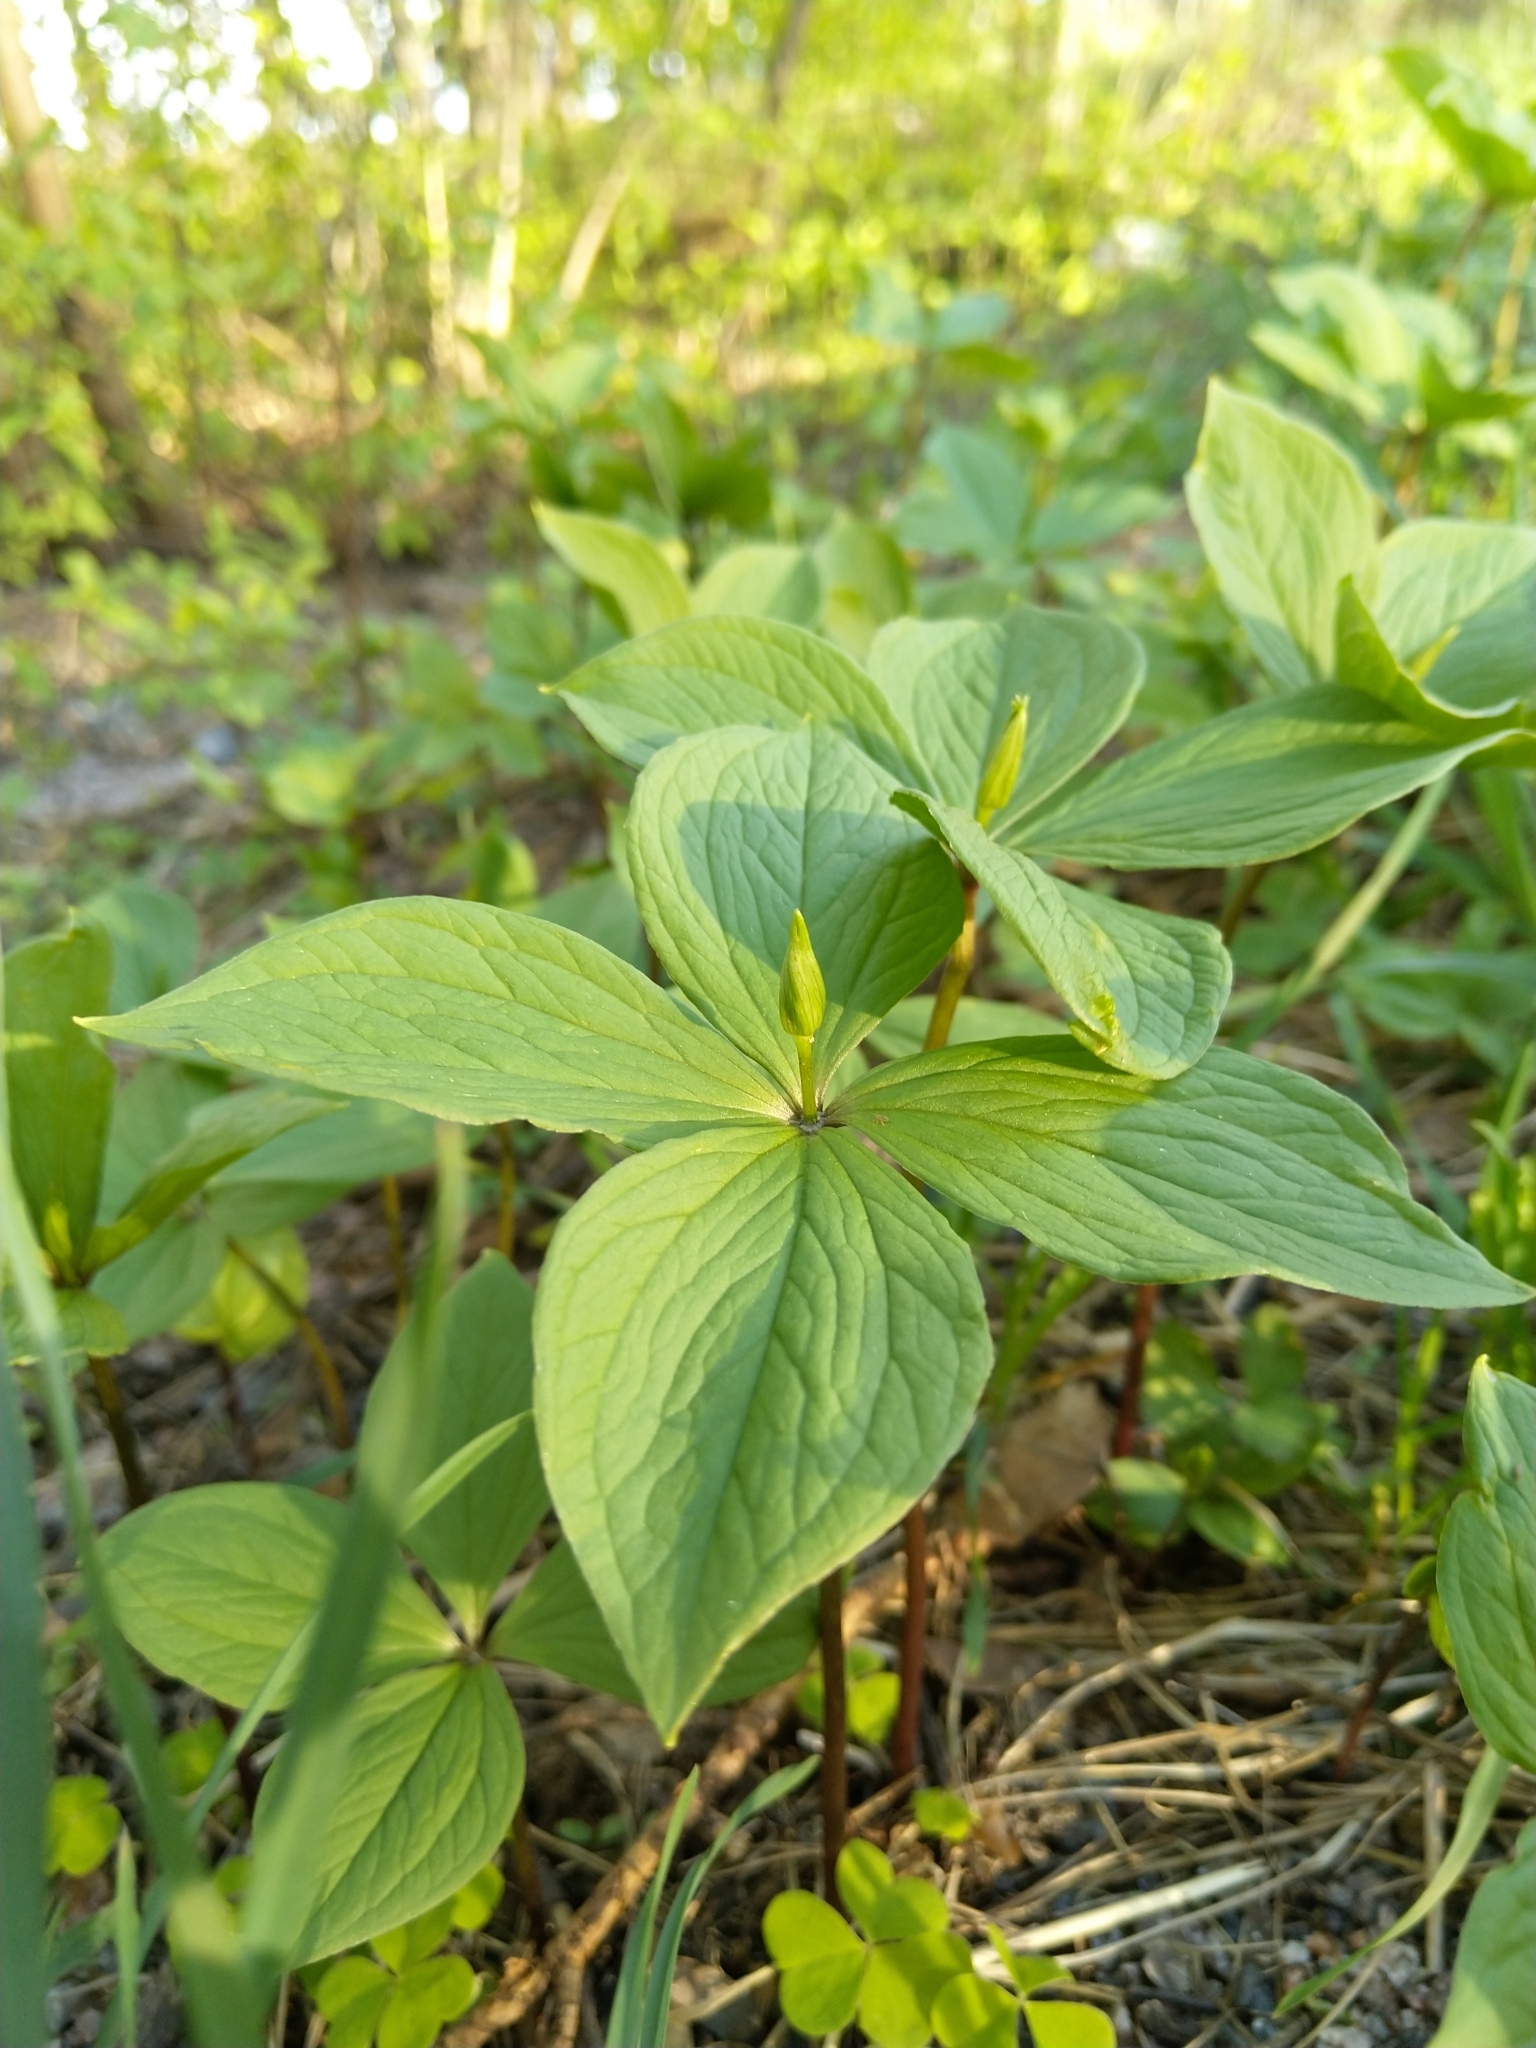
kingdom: Plantae
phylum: Tracheophyta
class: Liliopsida
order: Liliales
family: Melanthiaceae
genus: Paris
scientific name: Paris quadrifolia
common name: Herb-paris
